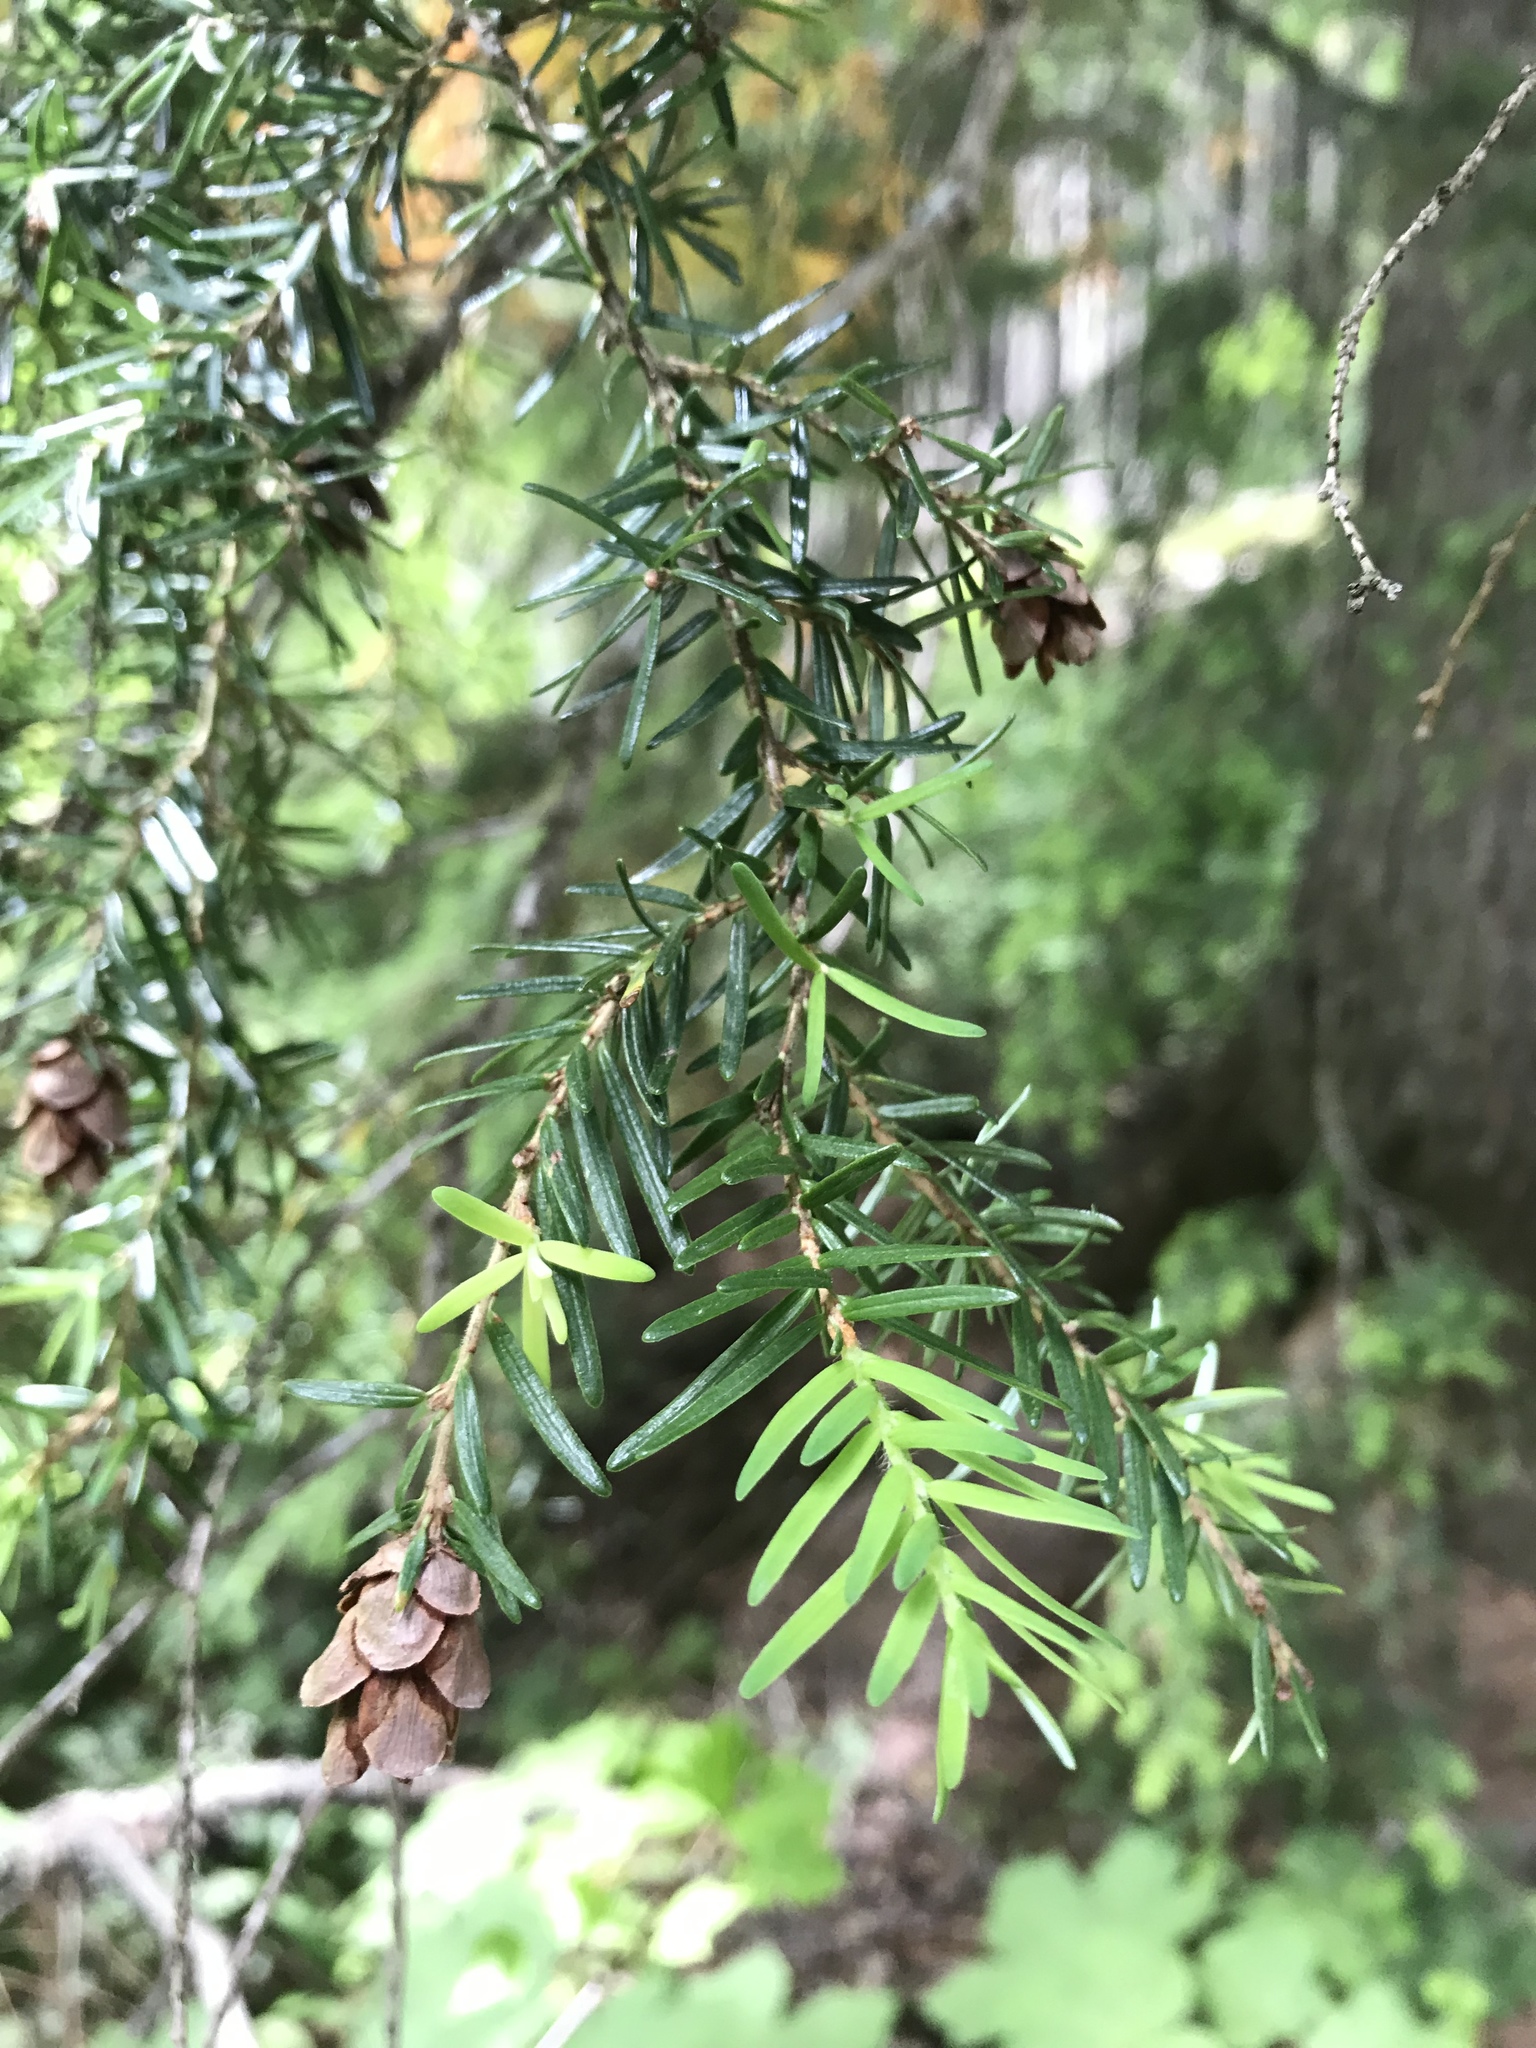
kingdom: Plantae
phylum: Tracheophyta
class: Pinopsida
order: Pinales
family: Pinaceae
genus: Tsuga
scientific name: Tsuga heterophylla
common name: Western hemlock
